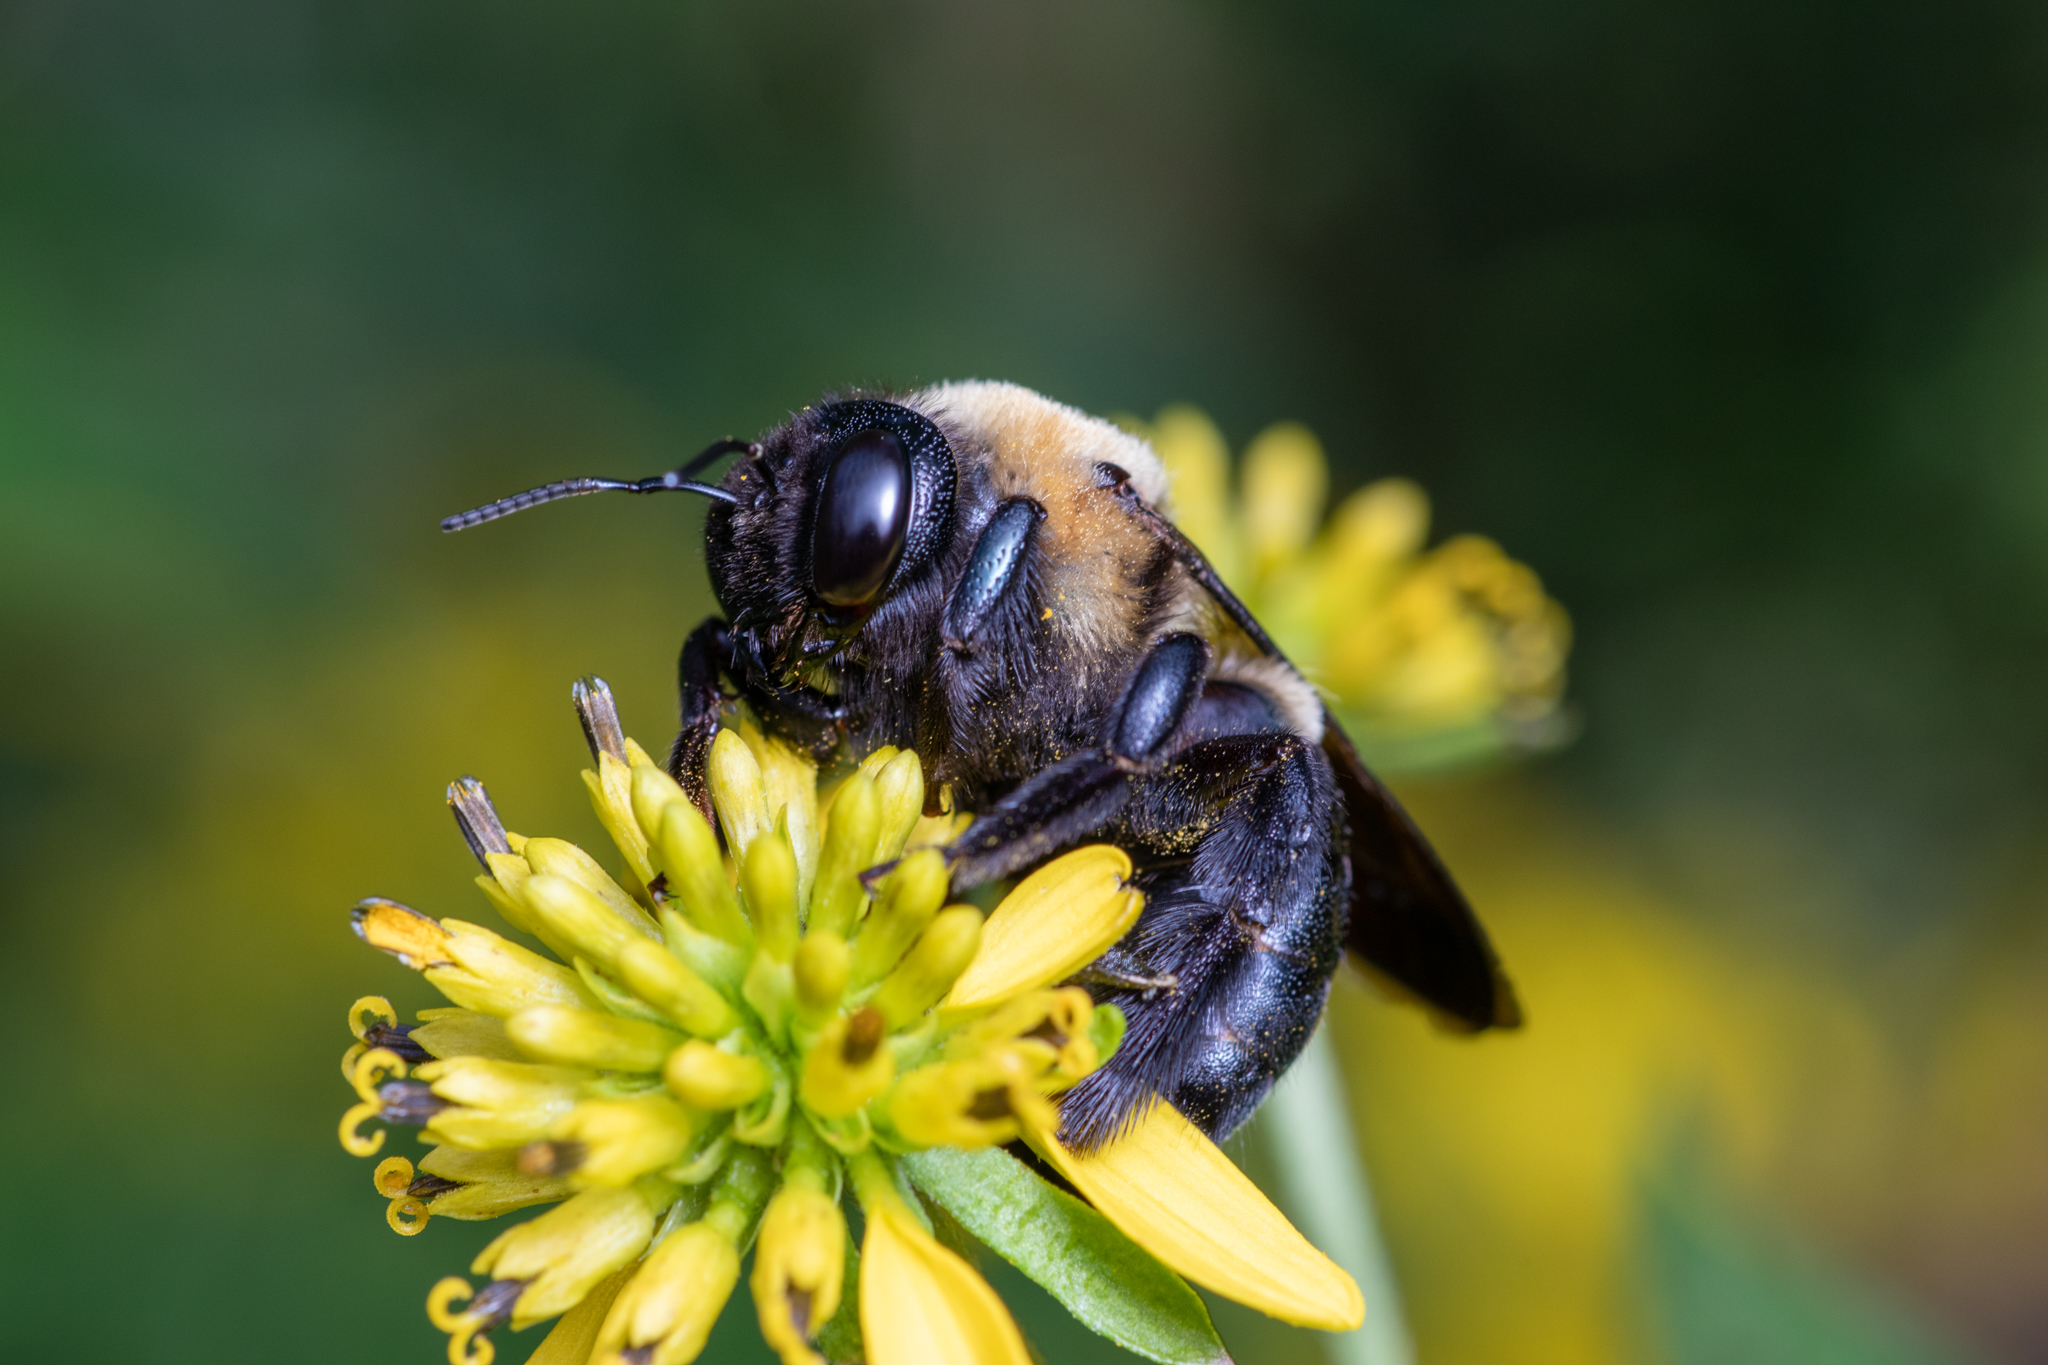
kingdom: Animalia
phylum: Arthropoda
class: Insecta
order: Hymenoptera
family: Apidae
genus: Xylocopa
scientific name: Xylocopa virginica
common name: Carpenter bee
